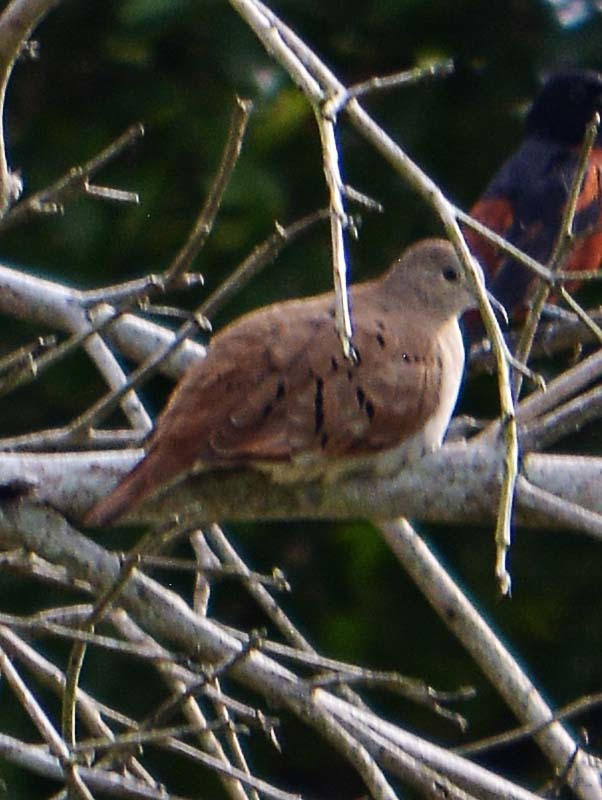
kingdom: Animalia
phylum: Chordata
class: Aves
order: Columbiformes
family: Columbidae
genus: Columbina
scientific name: Columbina talpacoti
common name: Ruddy ground dove
